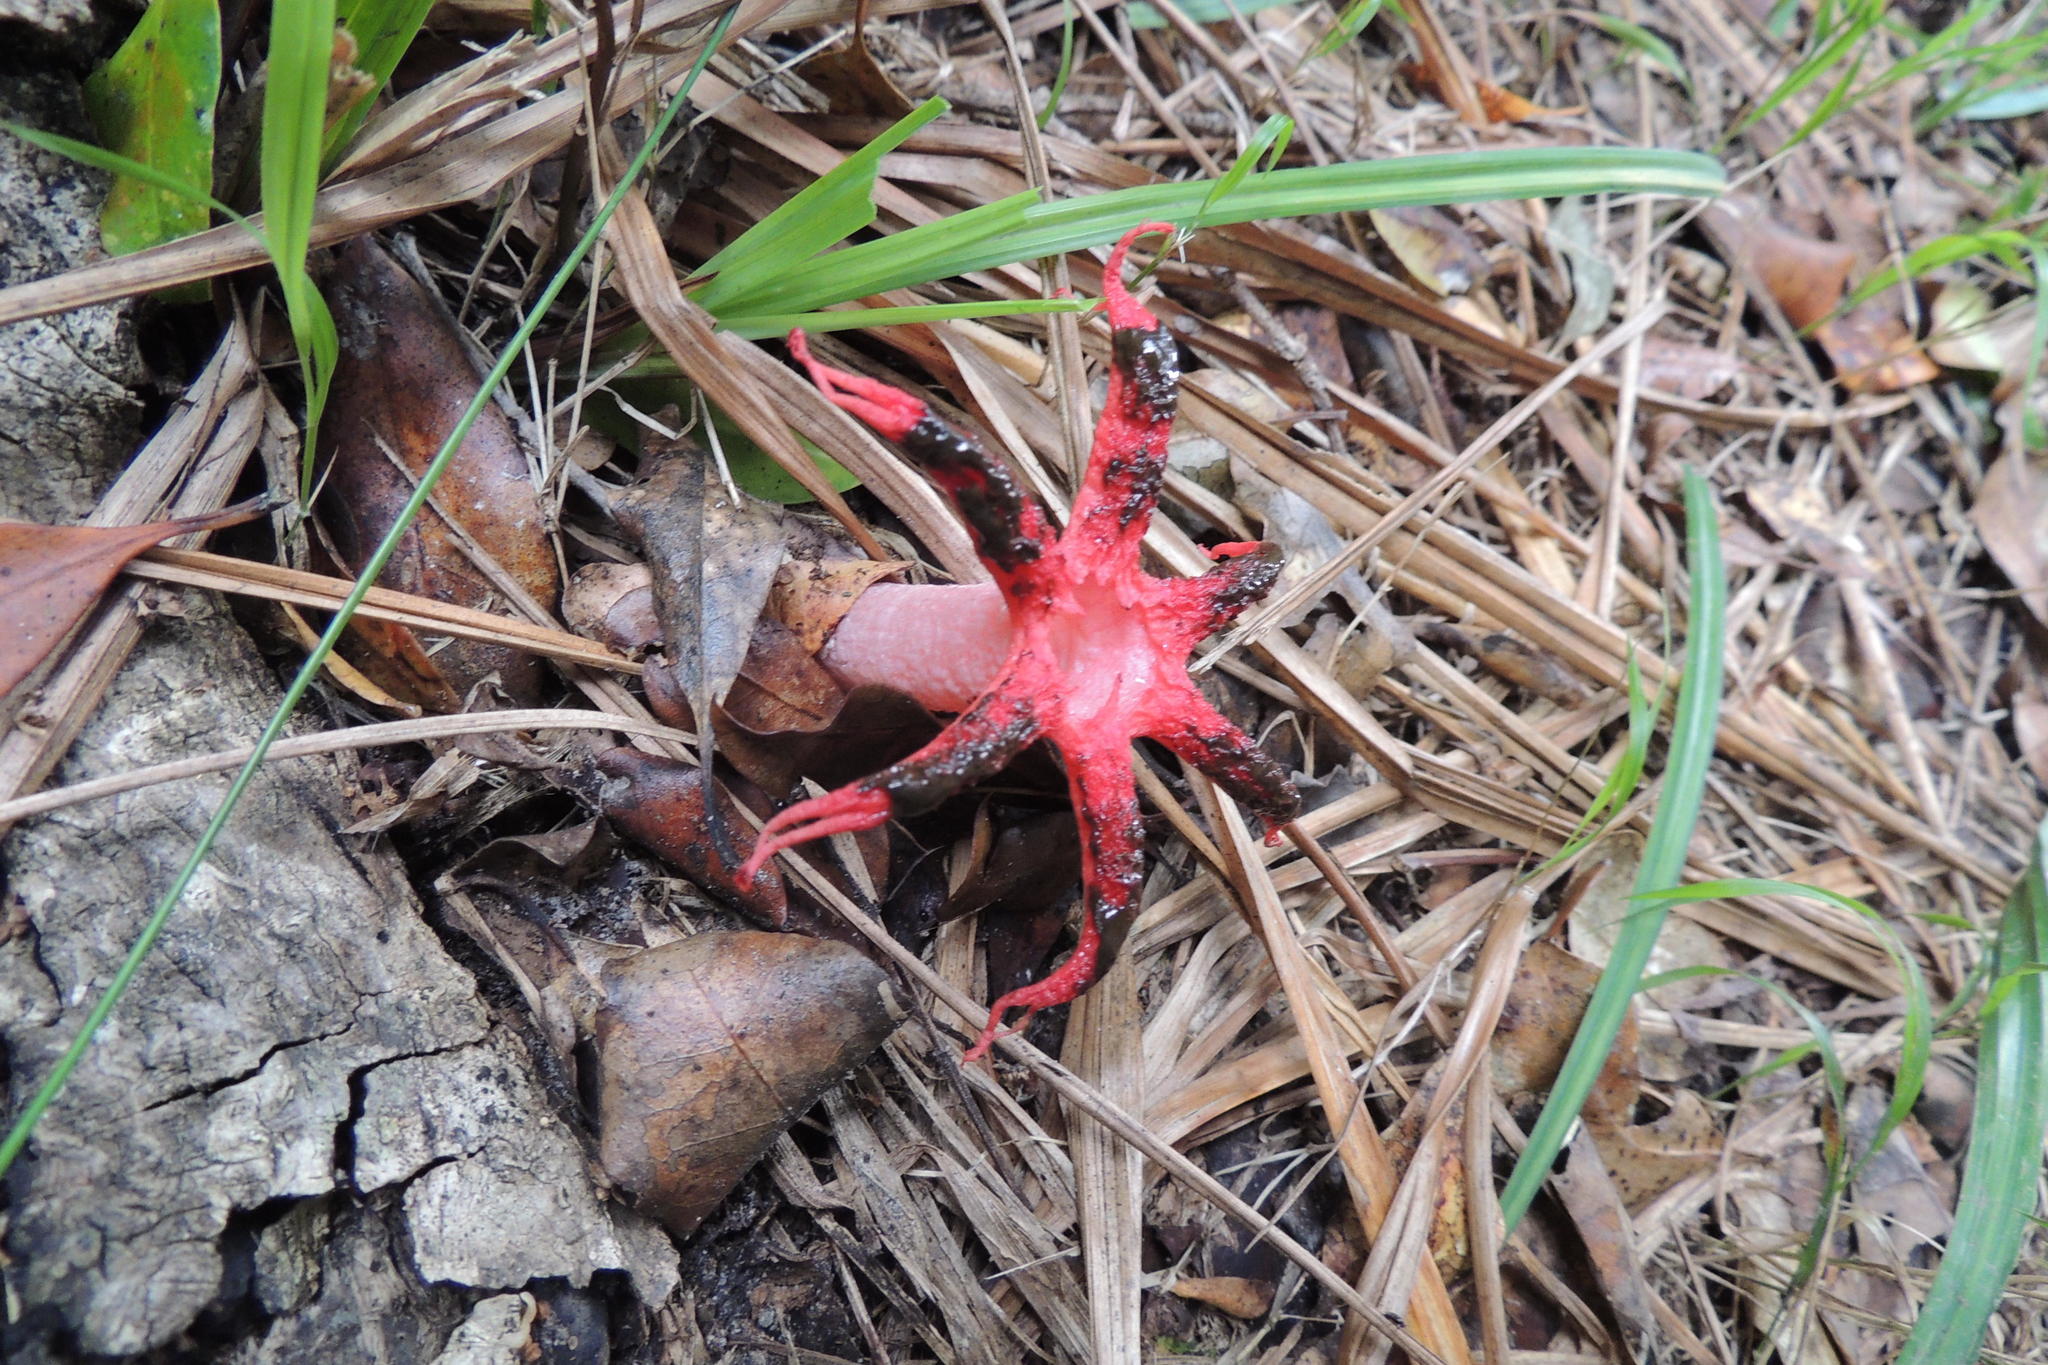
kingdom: Fungi
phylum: Basidiomycota
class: Agaricomycetes
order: Phallales
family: Phallaceae
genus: Clathrus
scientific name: Clathrus archeri
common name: Devil's fingers
